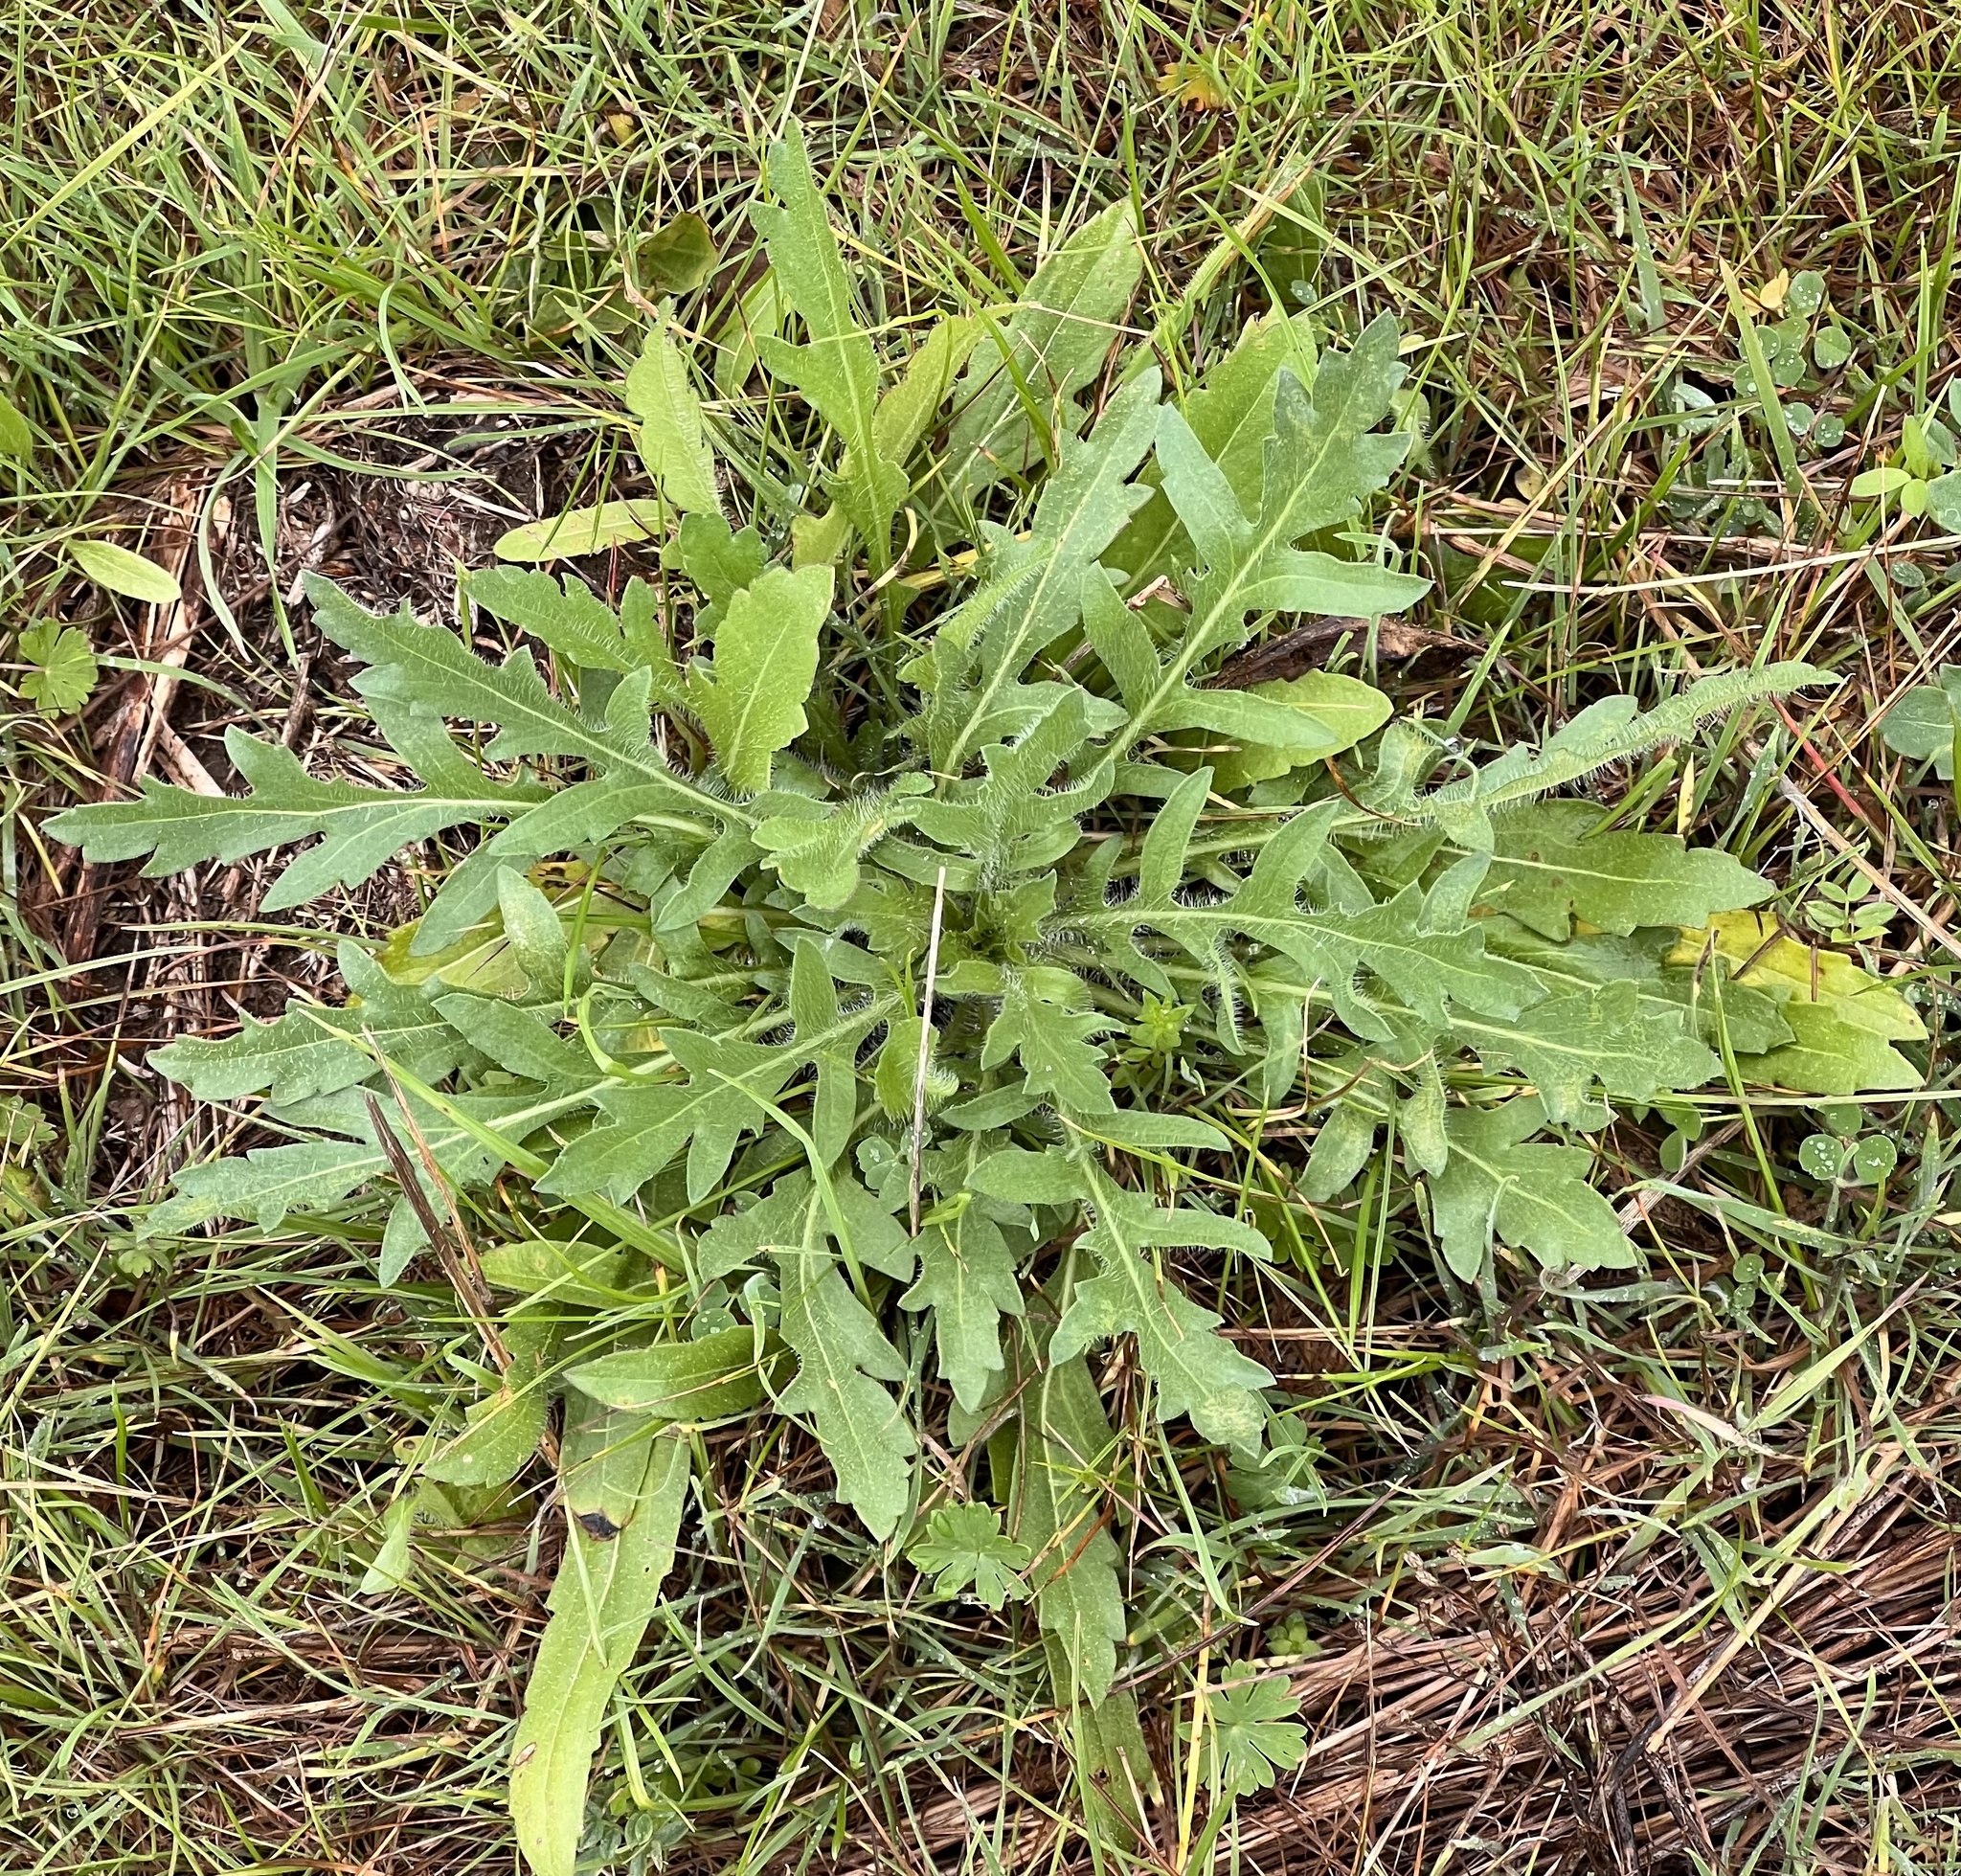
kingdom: Plantae
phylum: Tracheophyta
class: Magnoliopsida
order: Asterales
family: Asteraceae
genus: Engelmannia
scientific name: Engelmannia peristenia
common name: Engelmann's daisy
